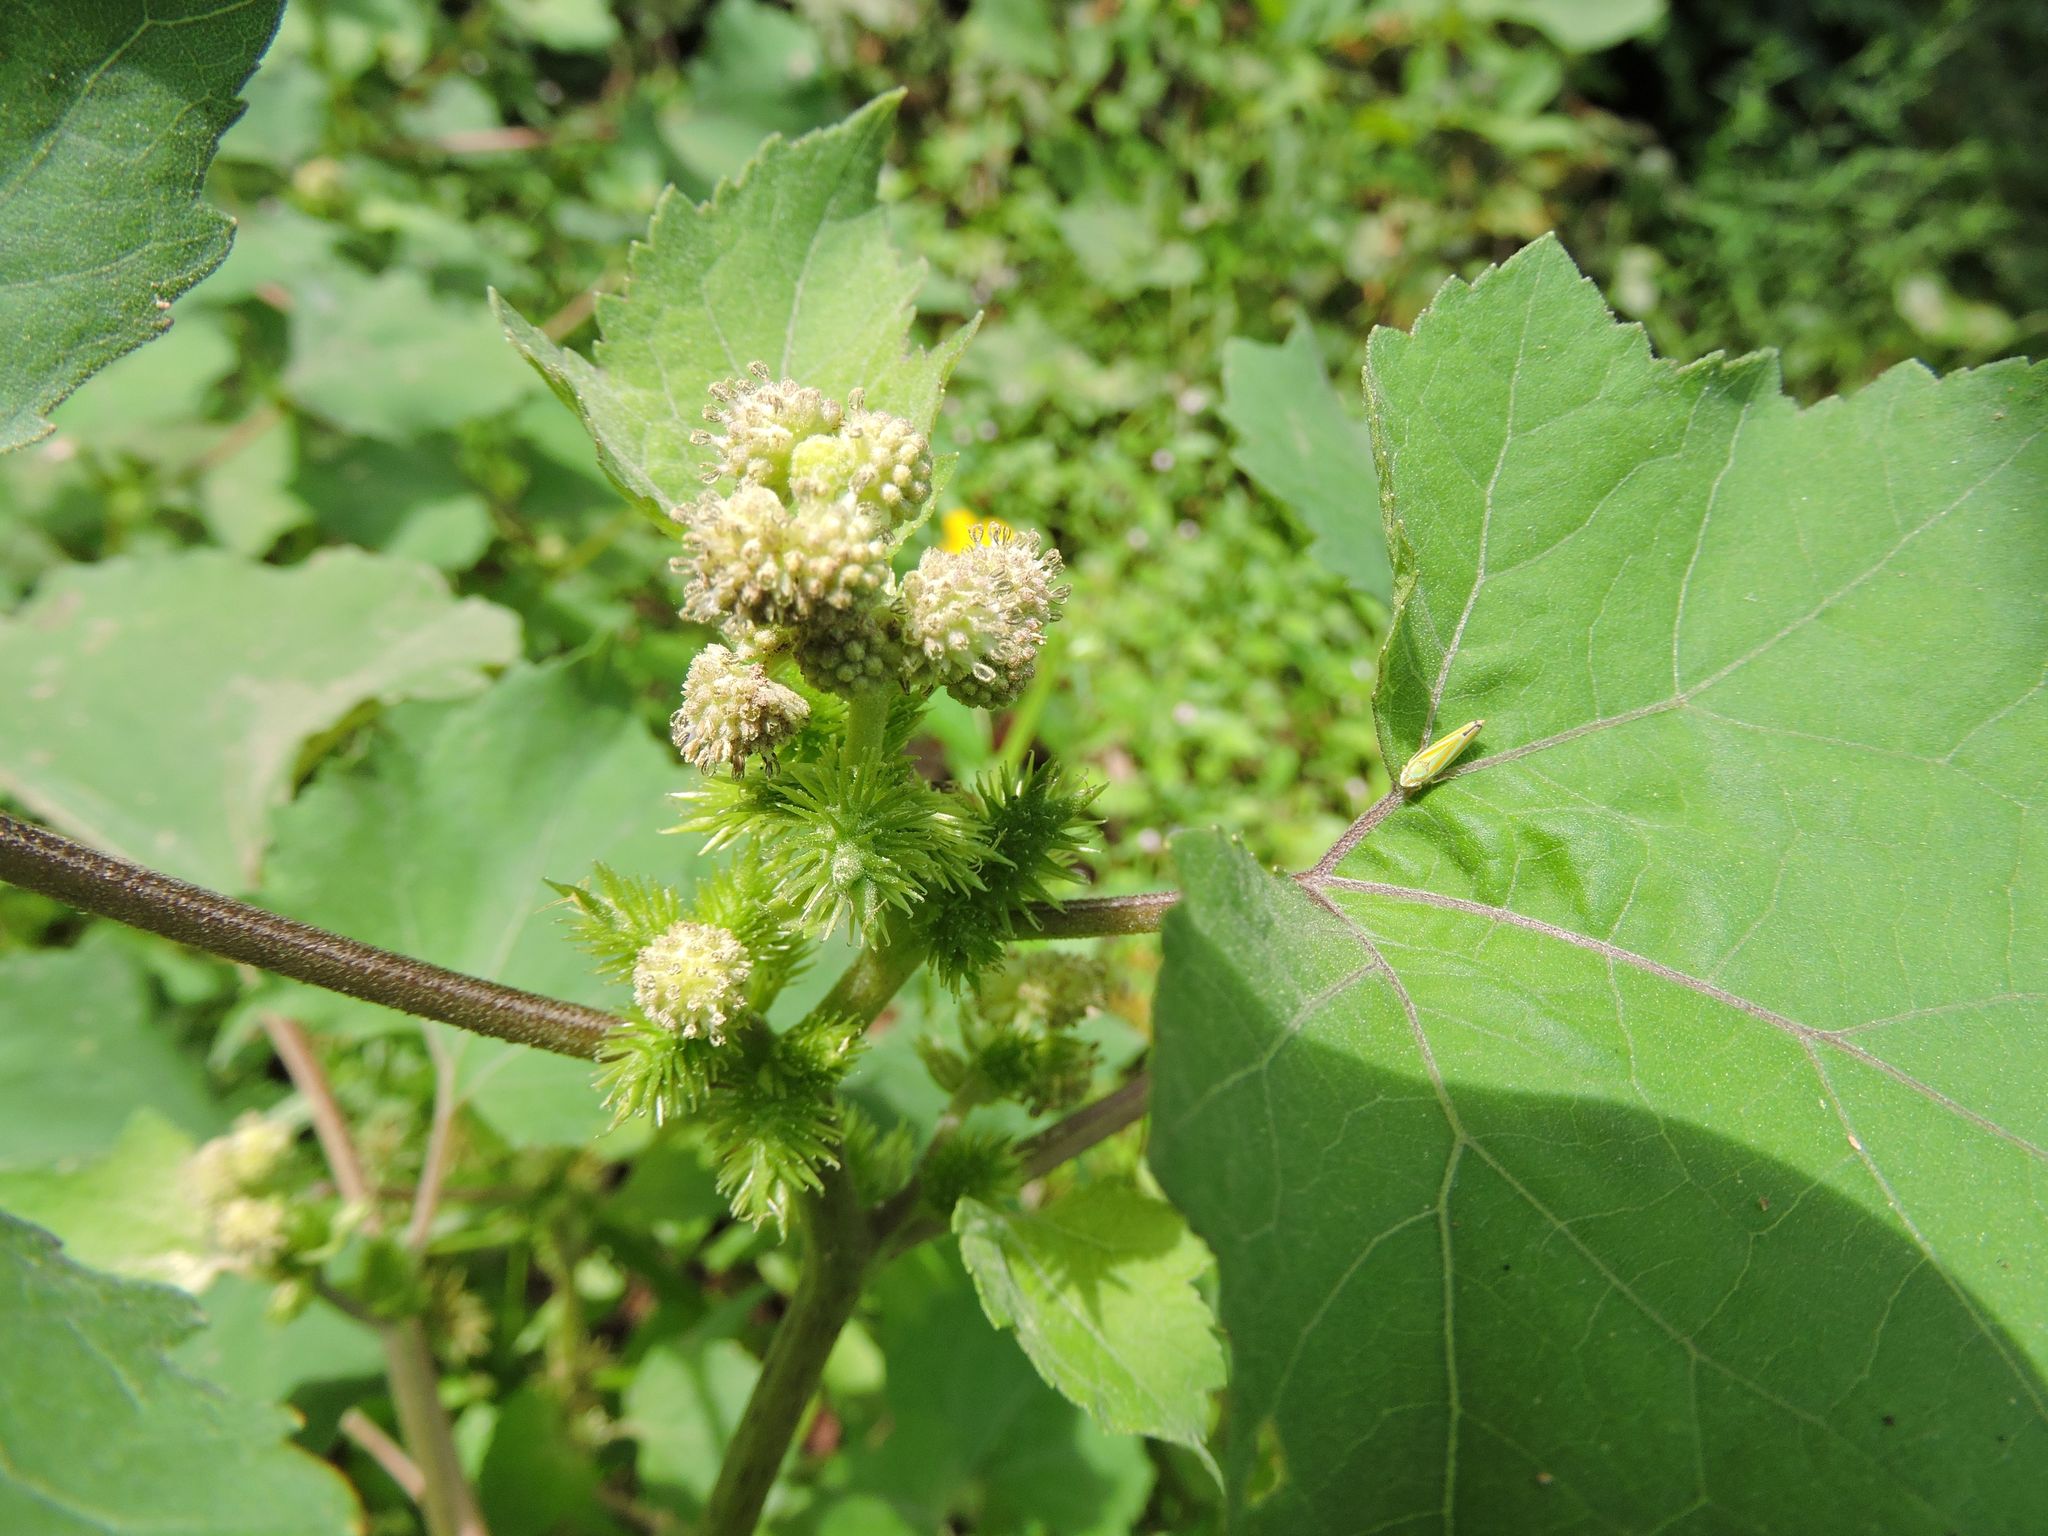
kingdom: Plantae
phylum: Tracheophyta
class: Magnoliopsida
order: Asterales
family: Asteraceae
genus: Xanthium
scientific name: Xanthium strumarium
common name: Rough cocklebur
